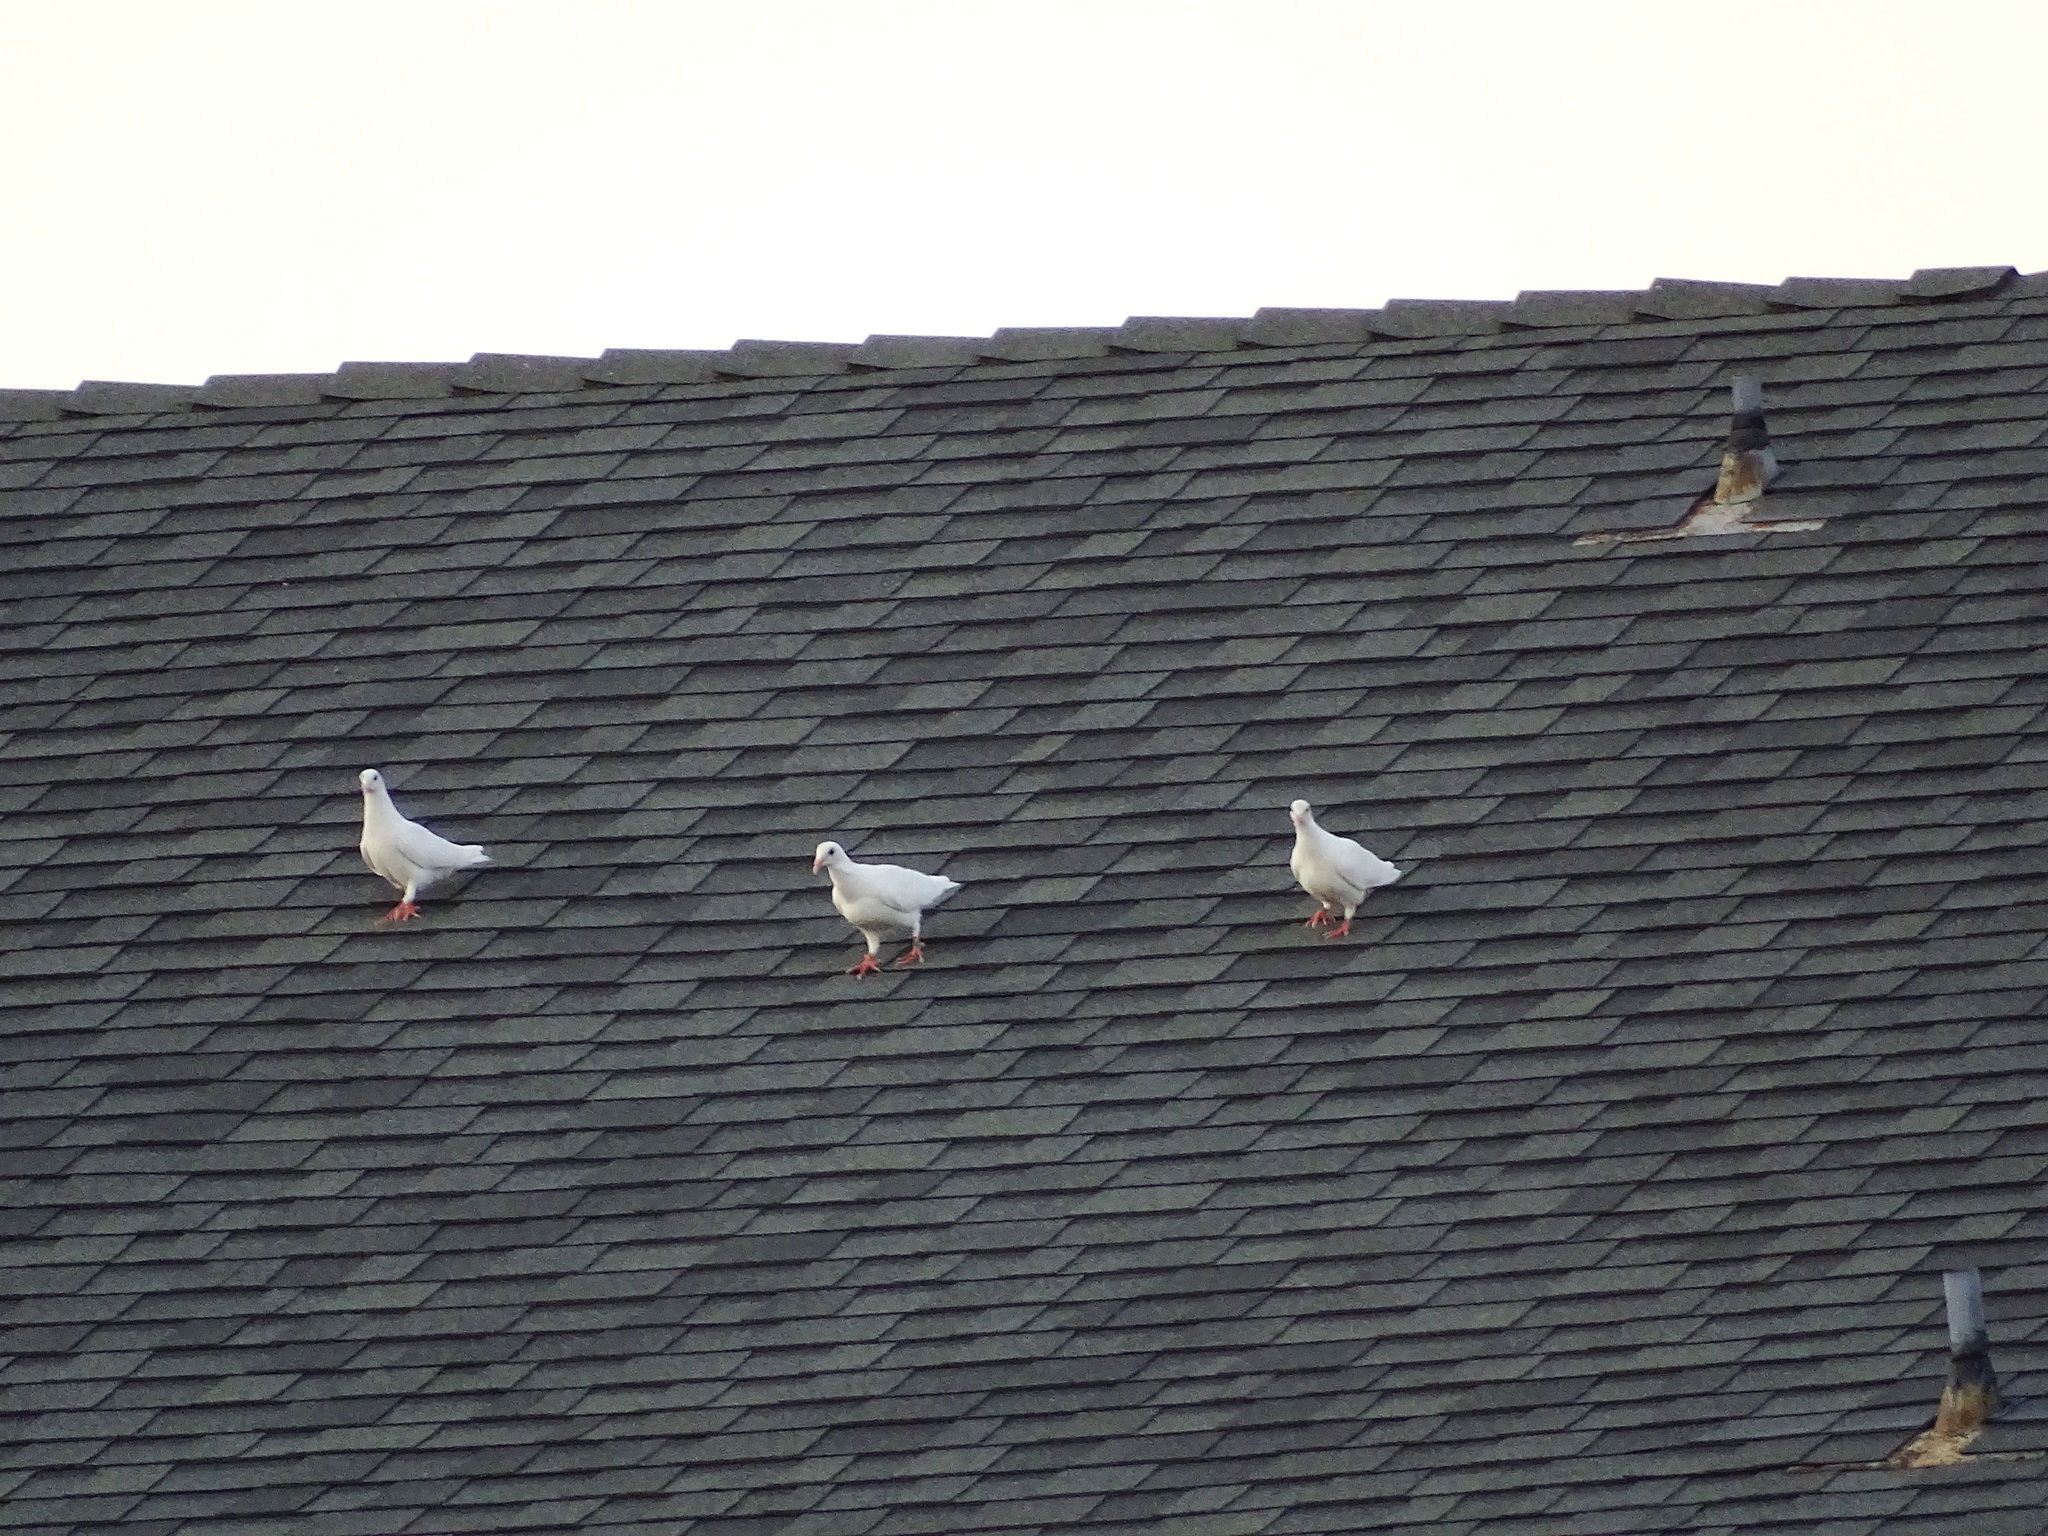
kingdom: Animalia
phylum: Chordata
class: Aves
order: Columbiformes
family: Columbidae
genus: Columba
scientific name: Columba livia
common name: Rock pigeon
